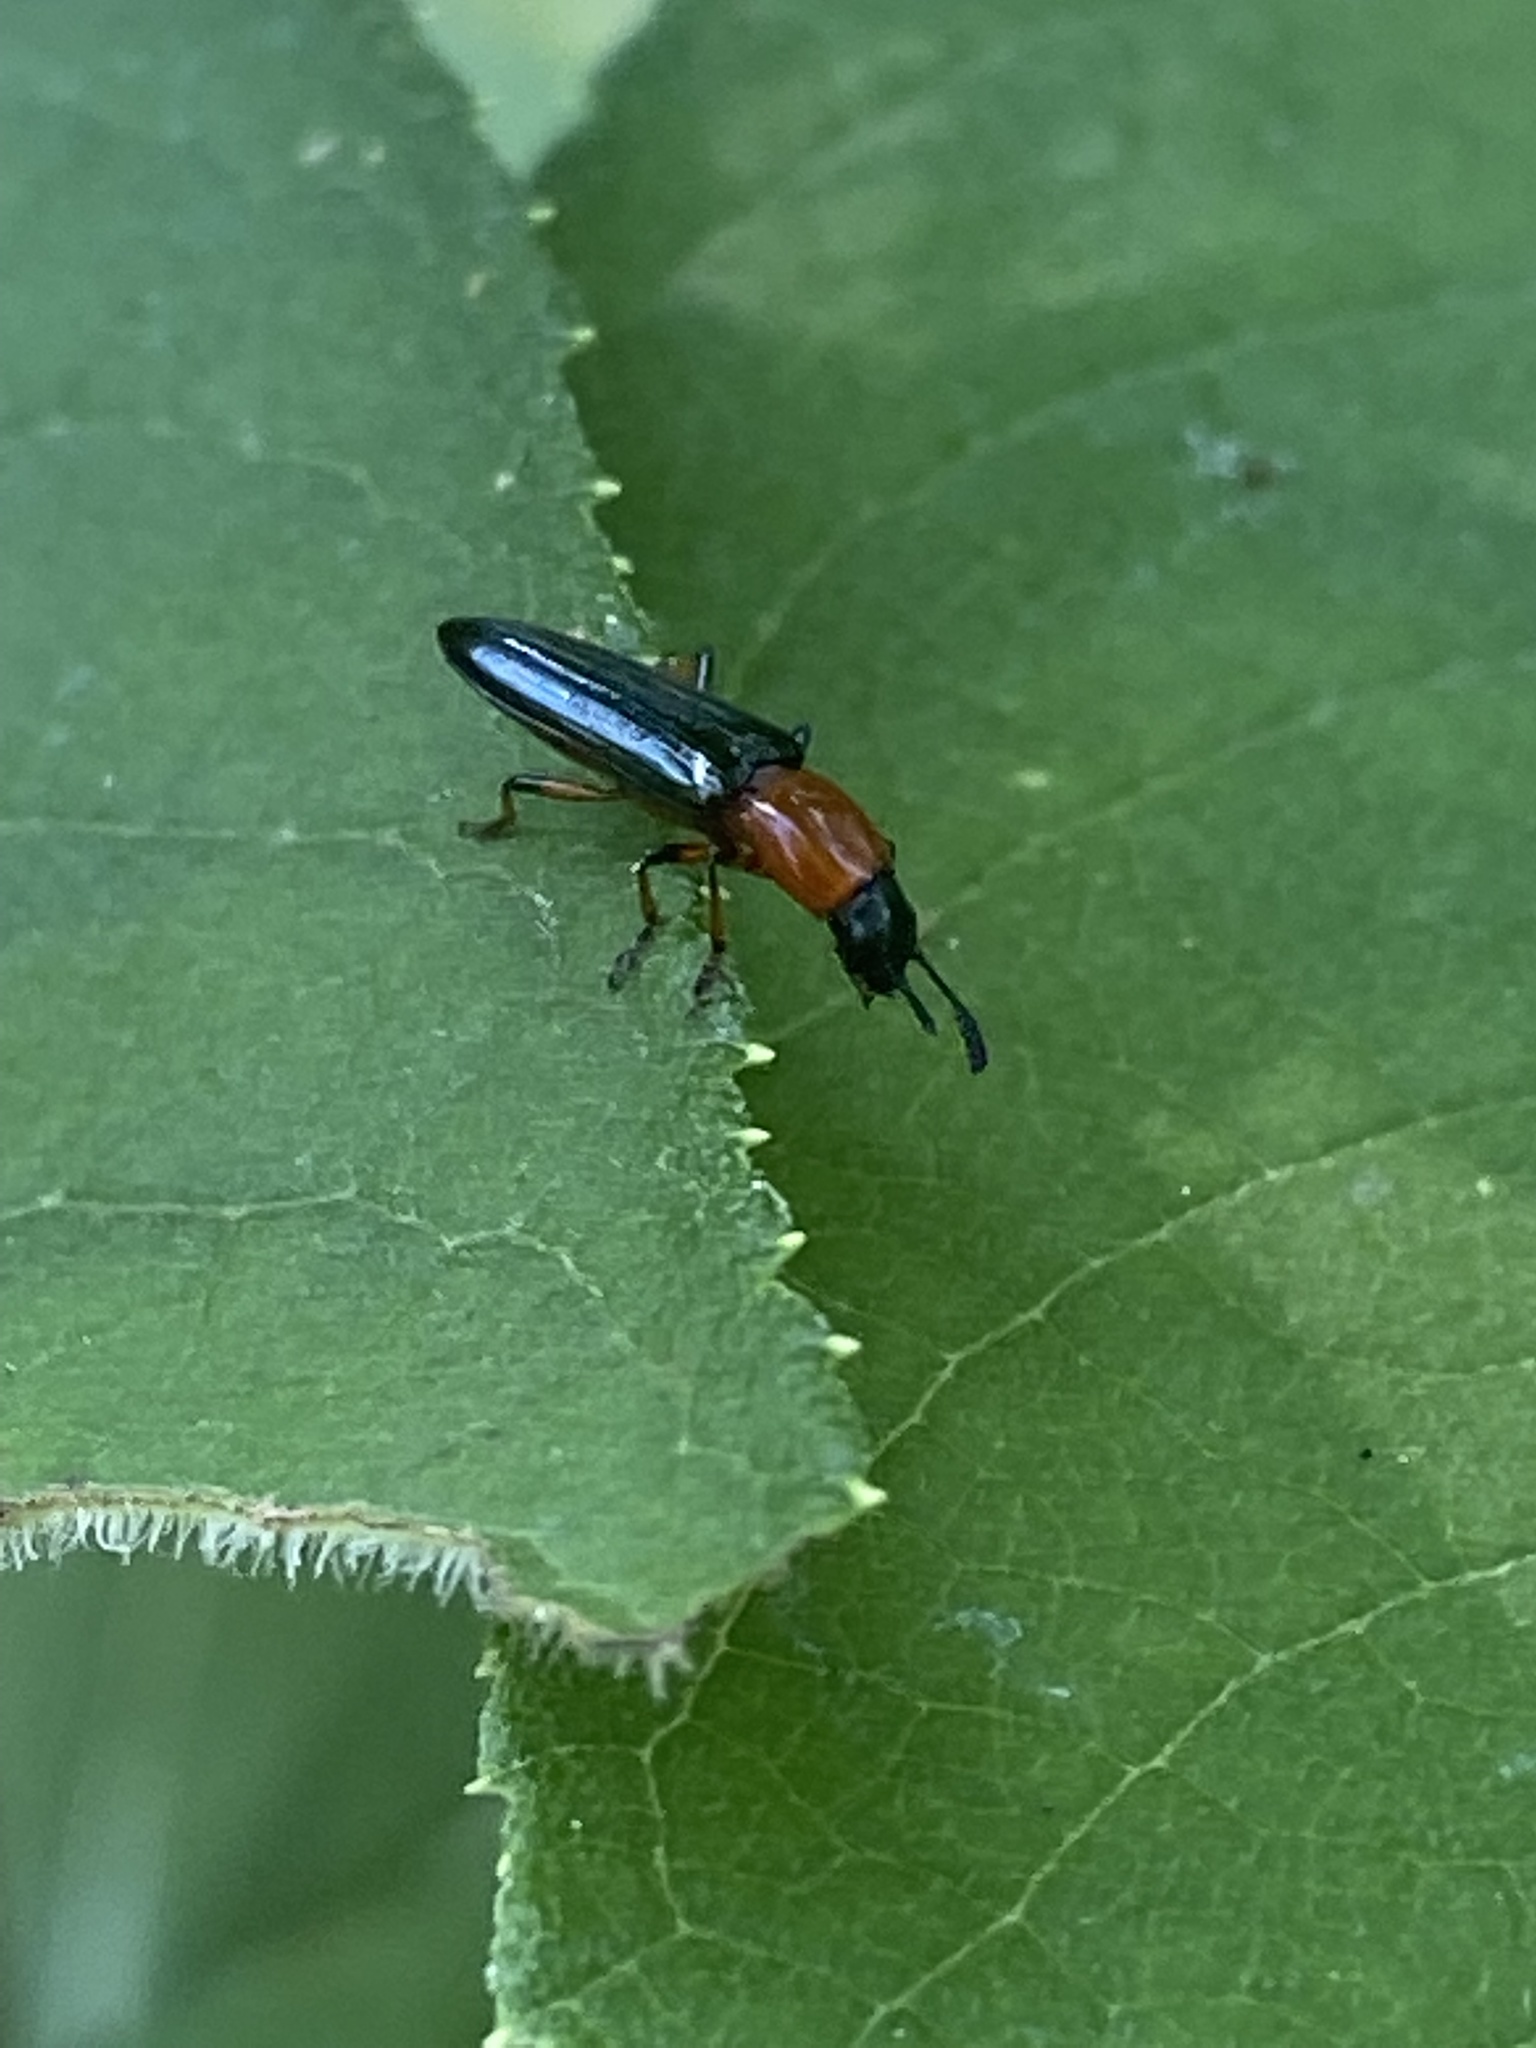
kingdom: Animalia
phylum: Arthropoda
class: Insecta
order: Coleoptera
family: Erotylidae
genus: Languria
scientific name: Languria angustata
